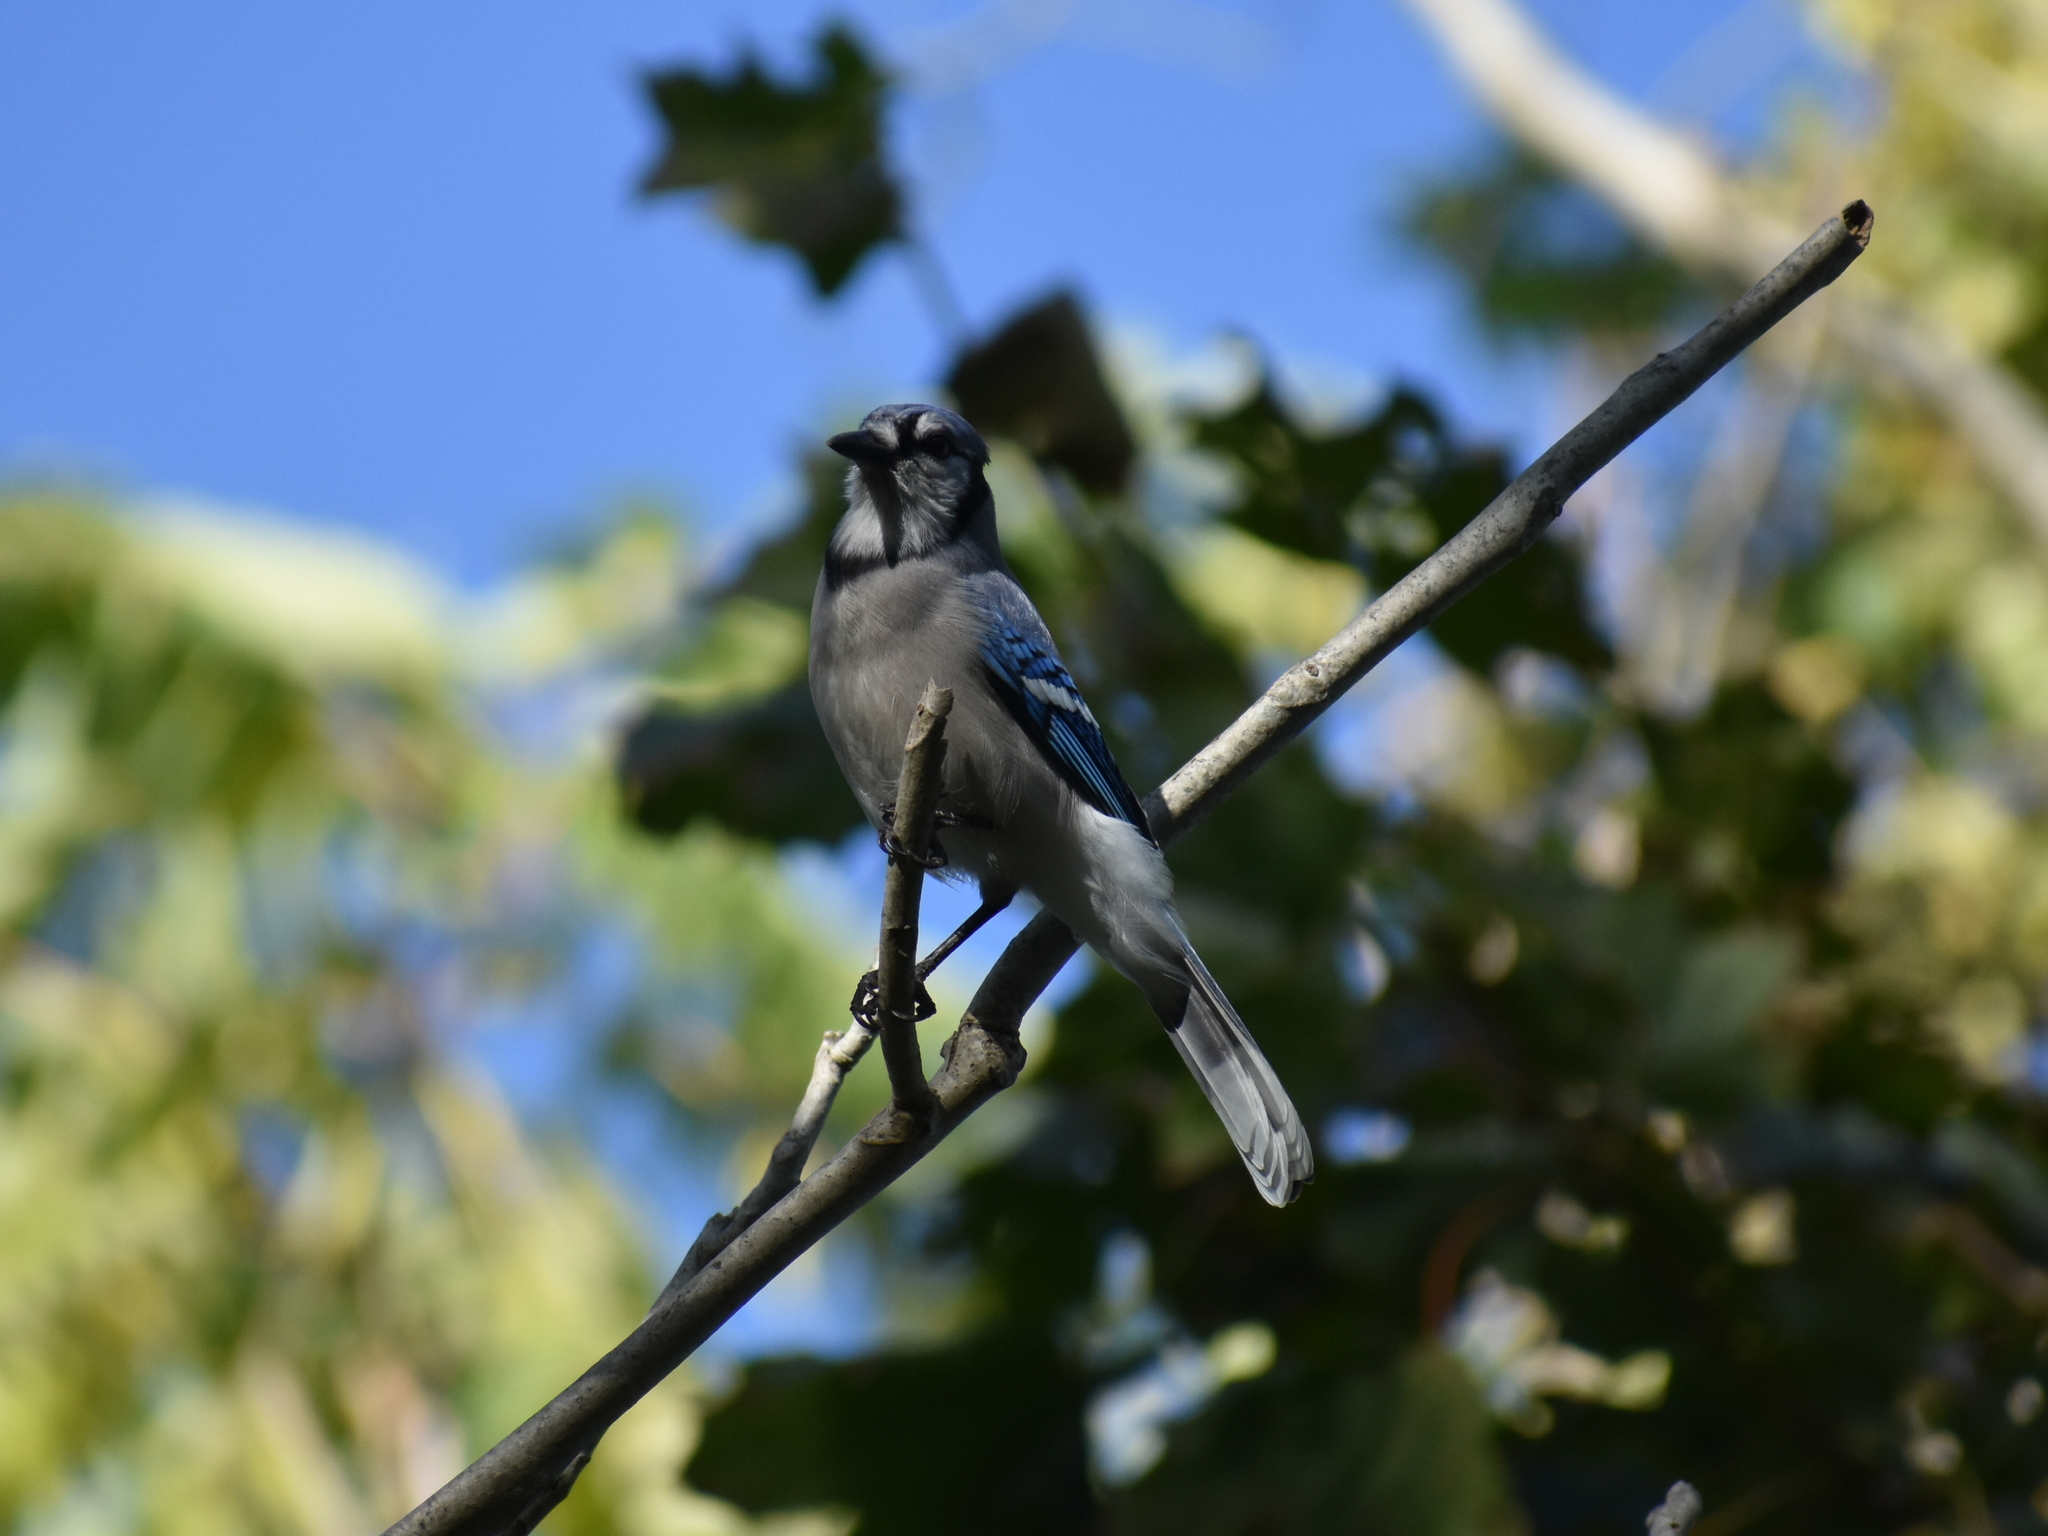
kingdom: Animalia
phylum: Chordata
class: Aves
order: Passeriformes
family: Corvidae
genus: Cyanocitta
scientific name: Cyanocitta cristata
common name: Blue jay
